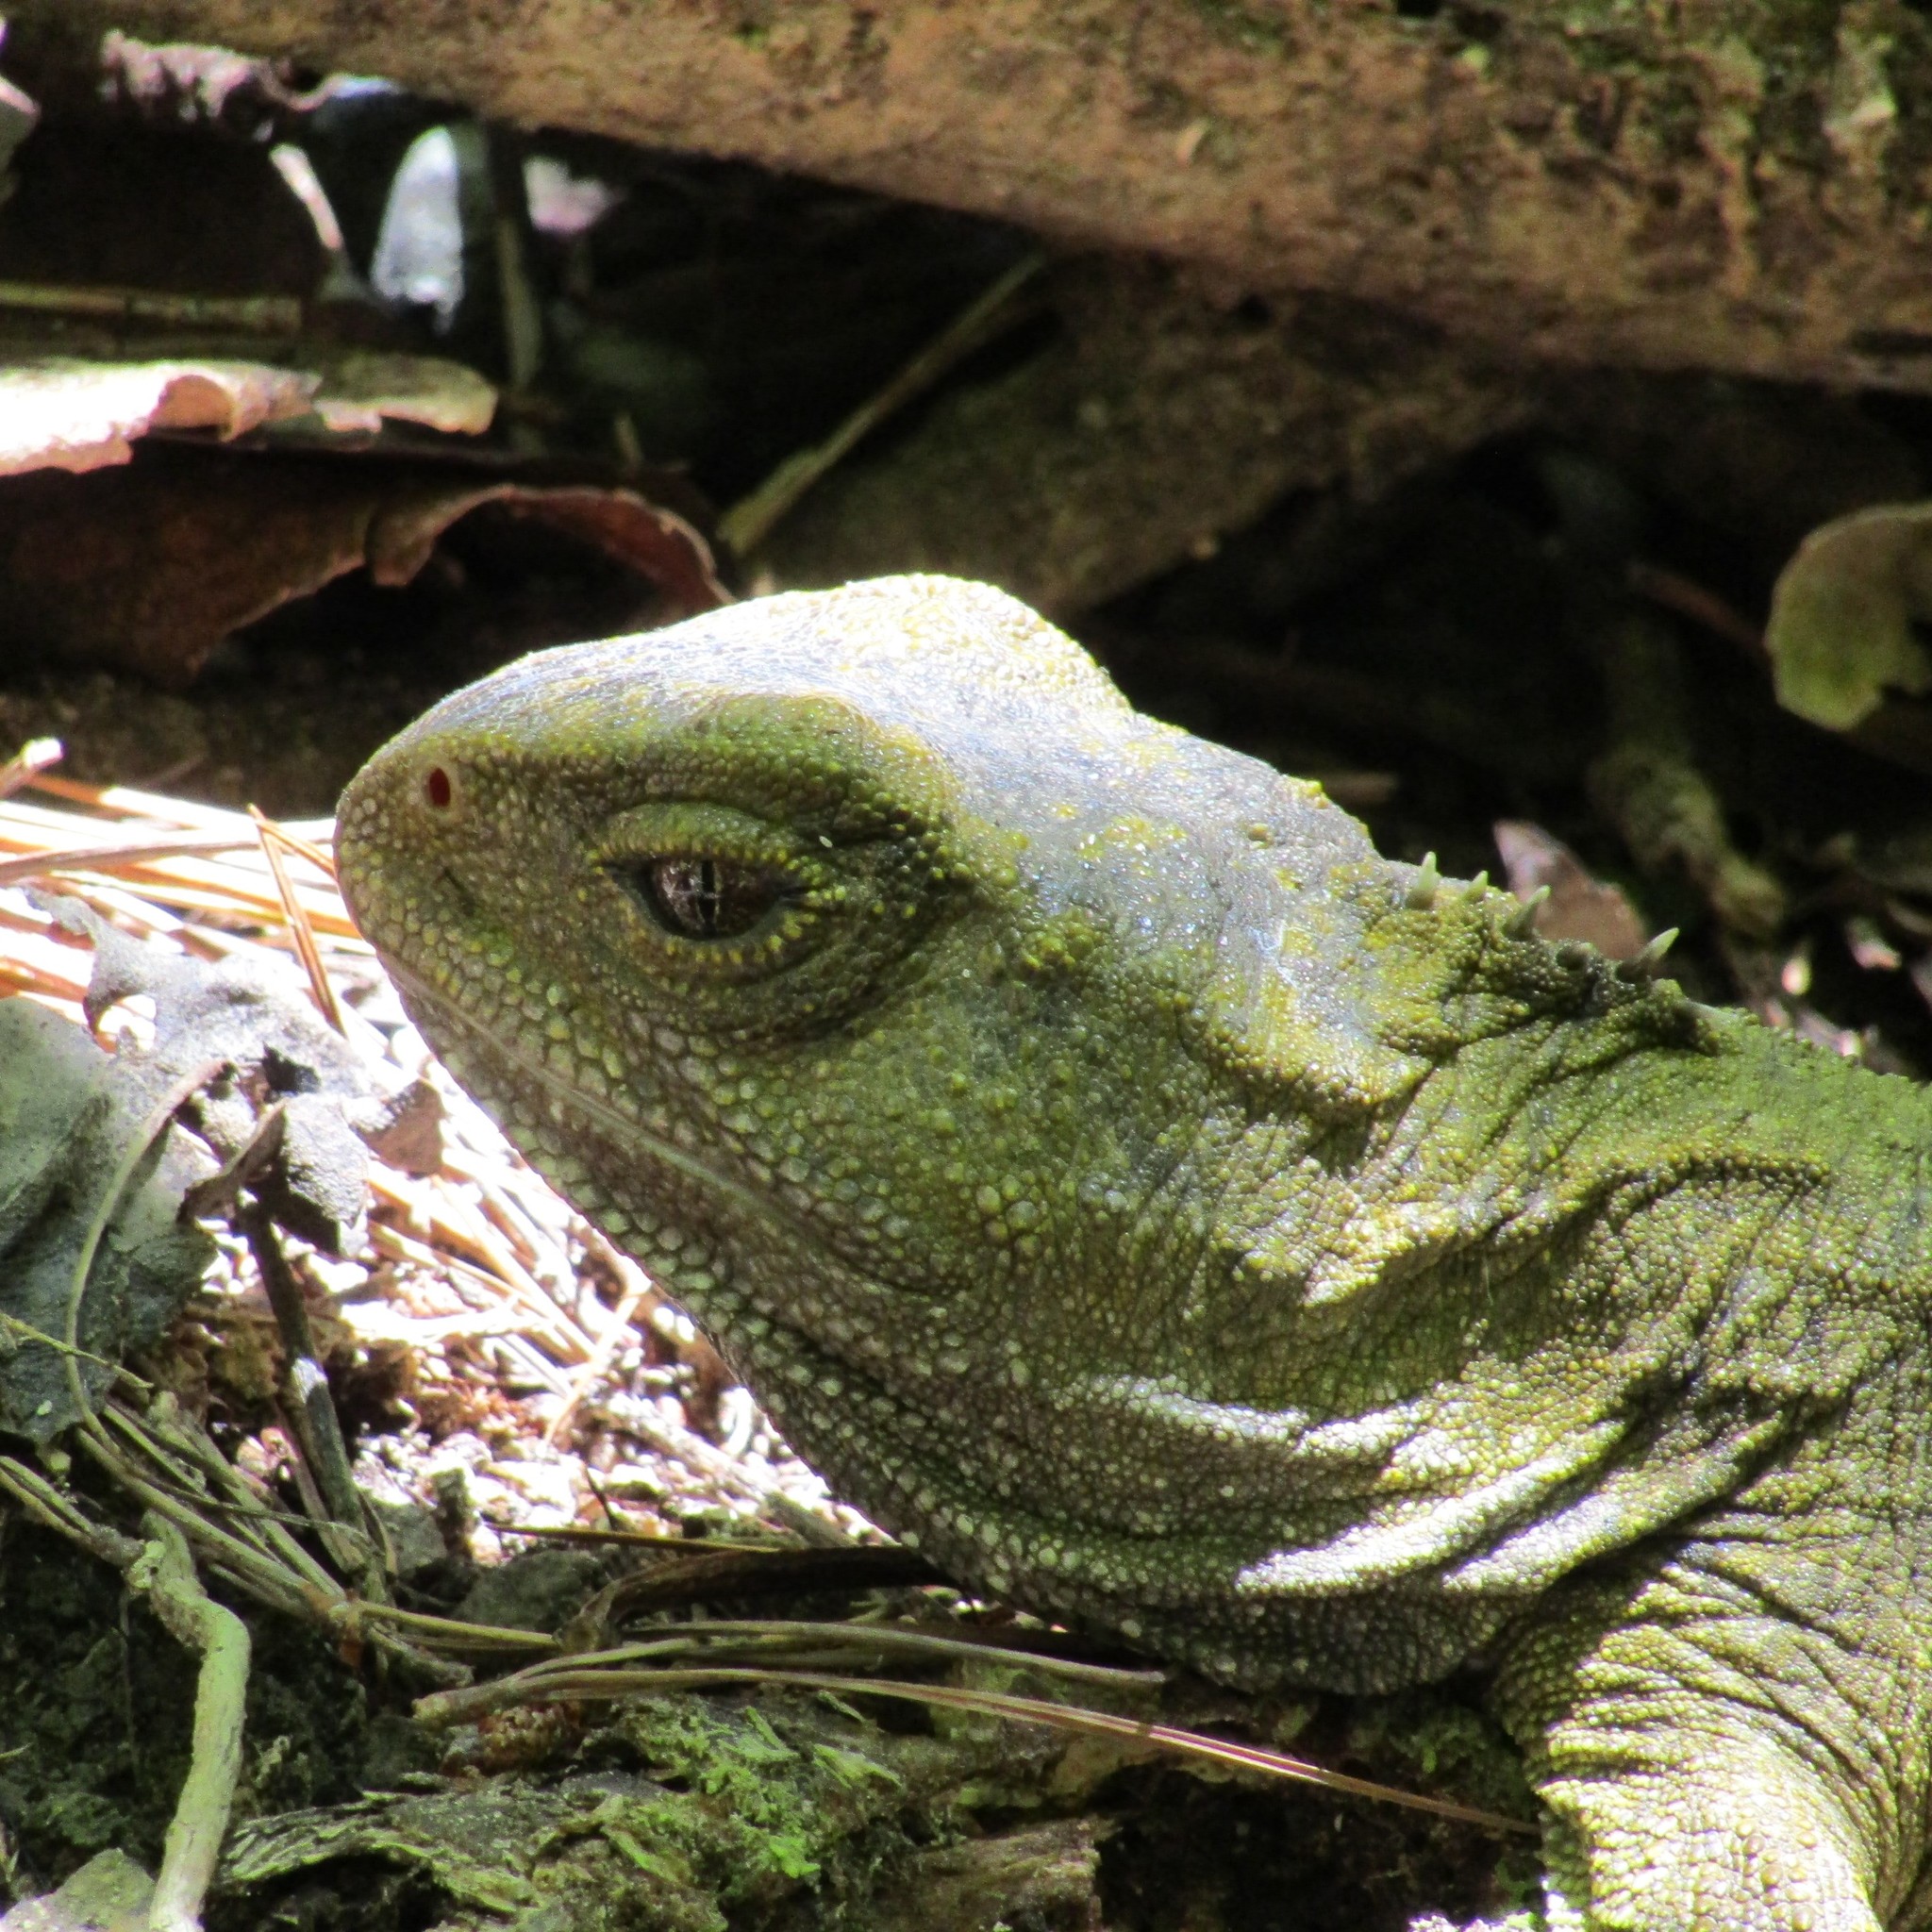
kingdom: Animalia
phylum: Chordata
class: Sphenodontia
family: Sphenodontidae
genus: Sphenodon
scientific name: Sphenodon punctatus
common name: Tuatara
